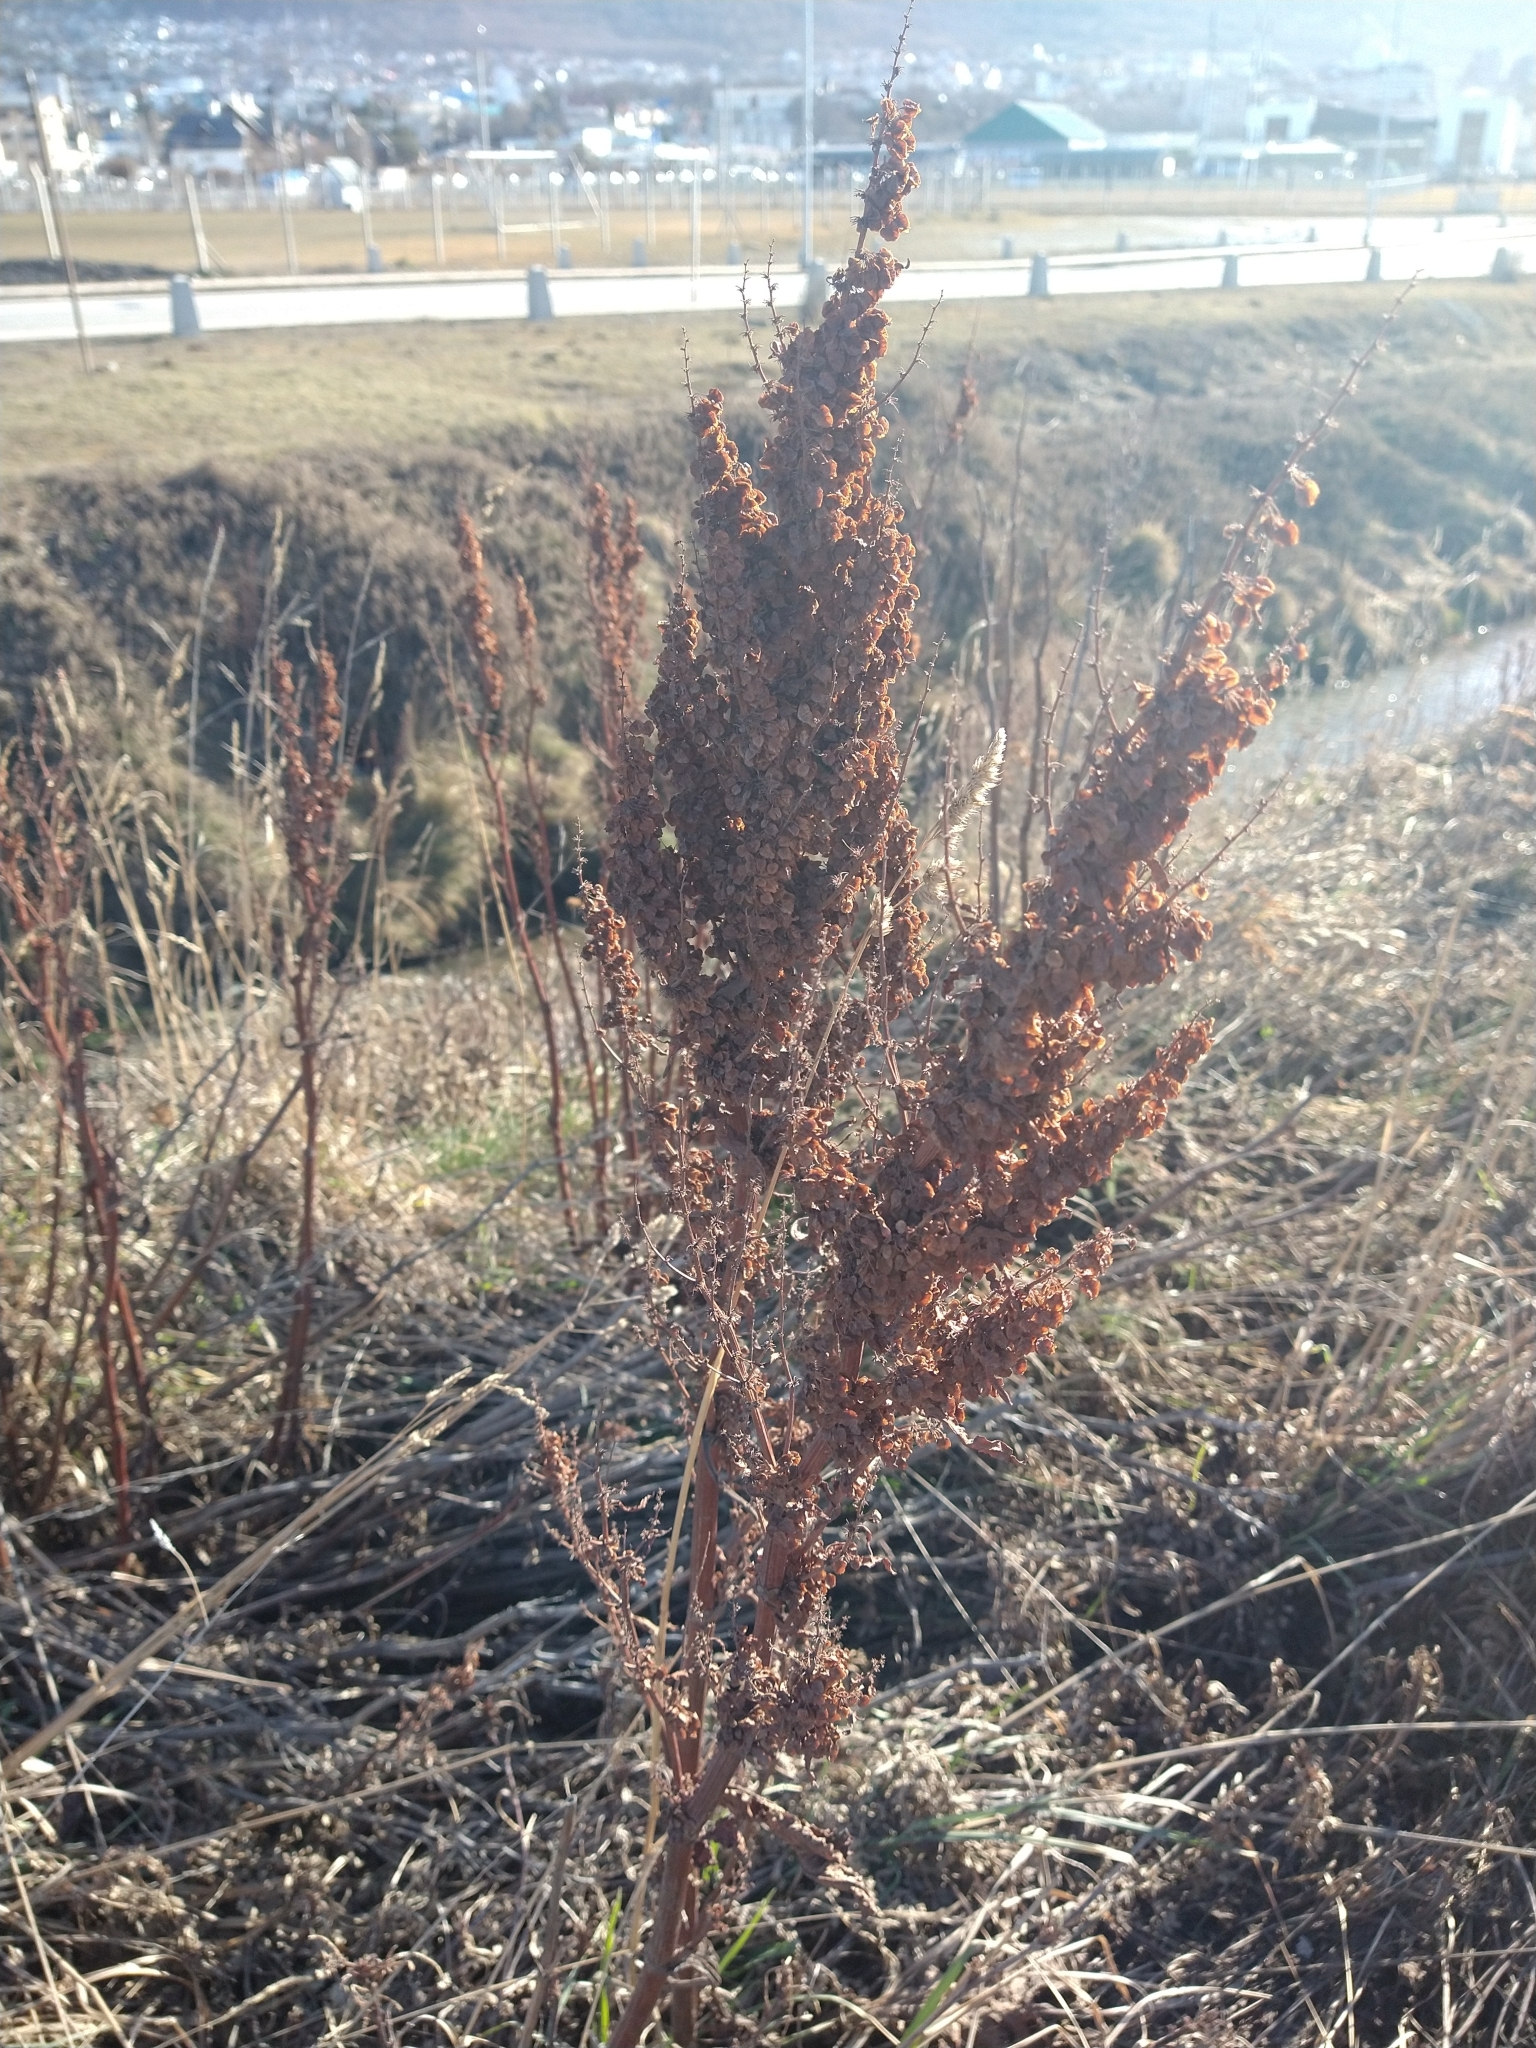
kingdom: Plantae
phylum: Tracheophyta
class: Magnoliopsida
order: Caryophyllales
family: Polygonaceae
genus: Rumex
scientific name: Rumex crispus
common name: Curled dock
